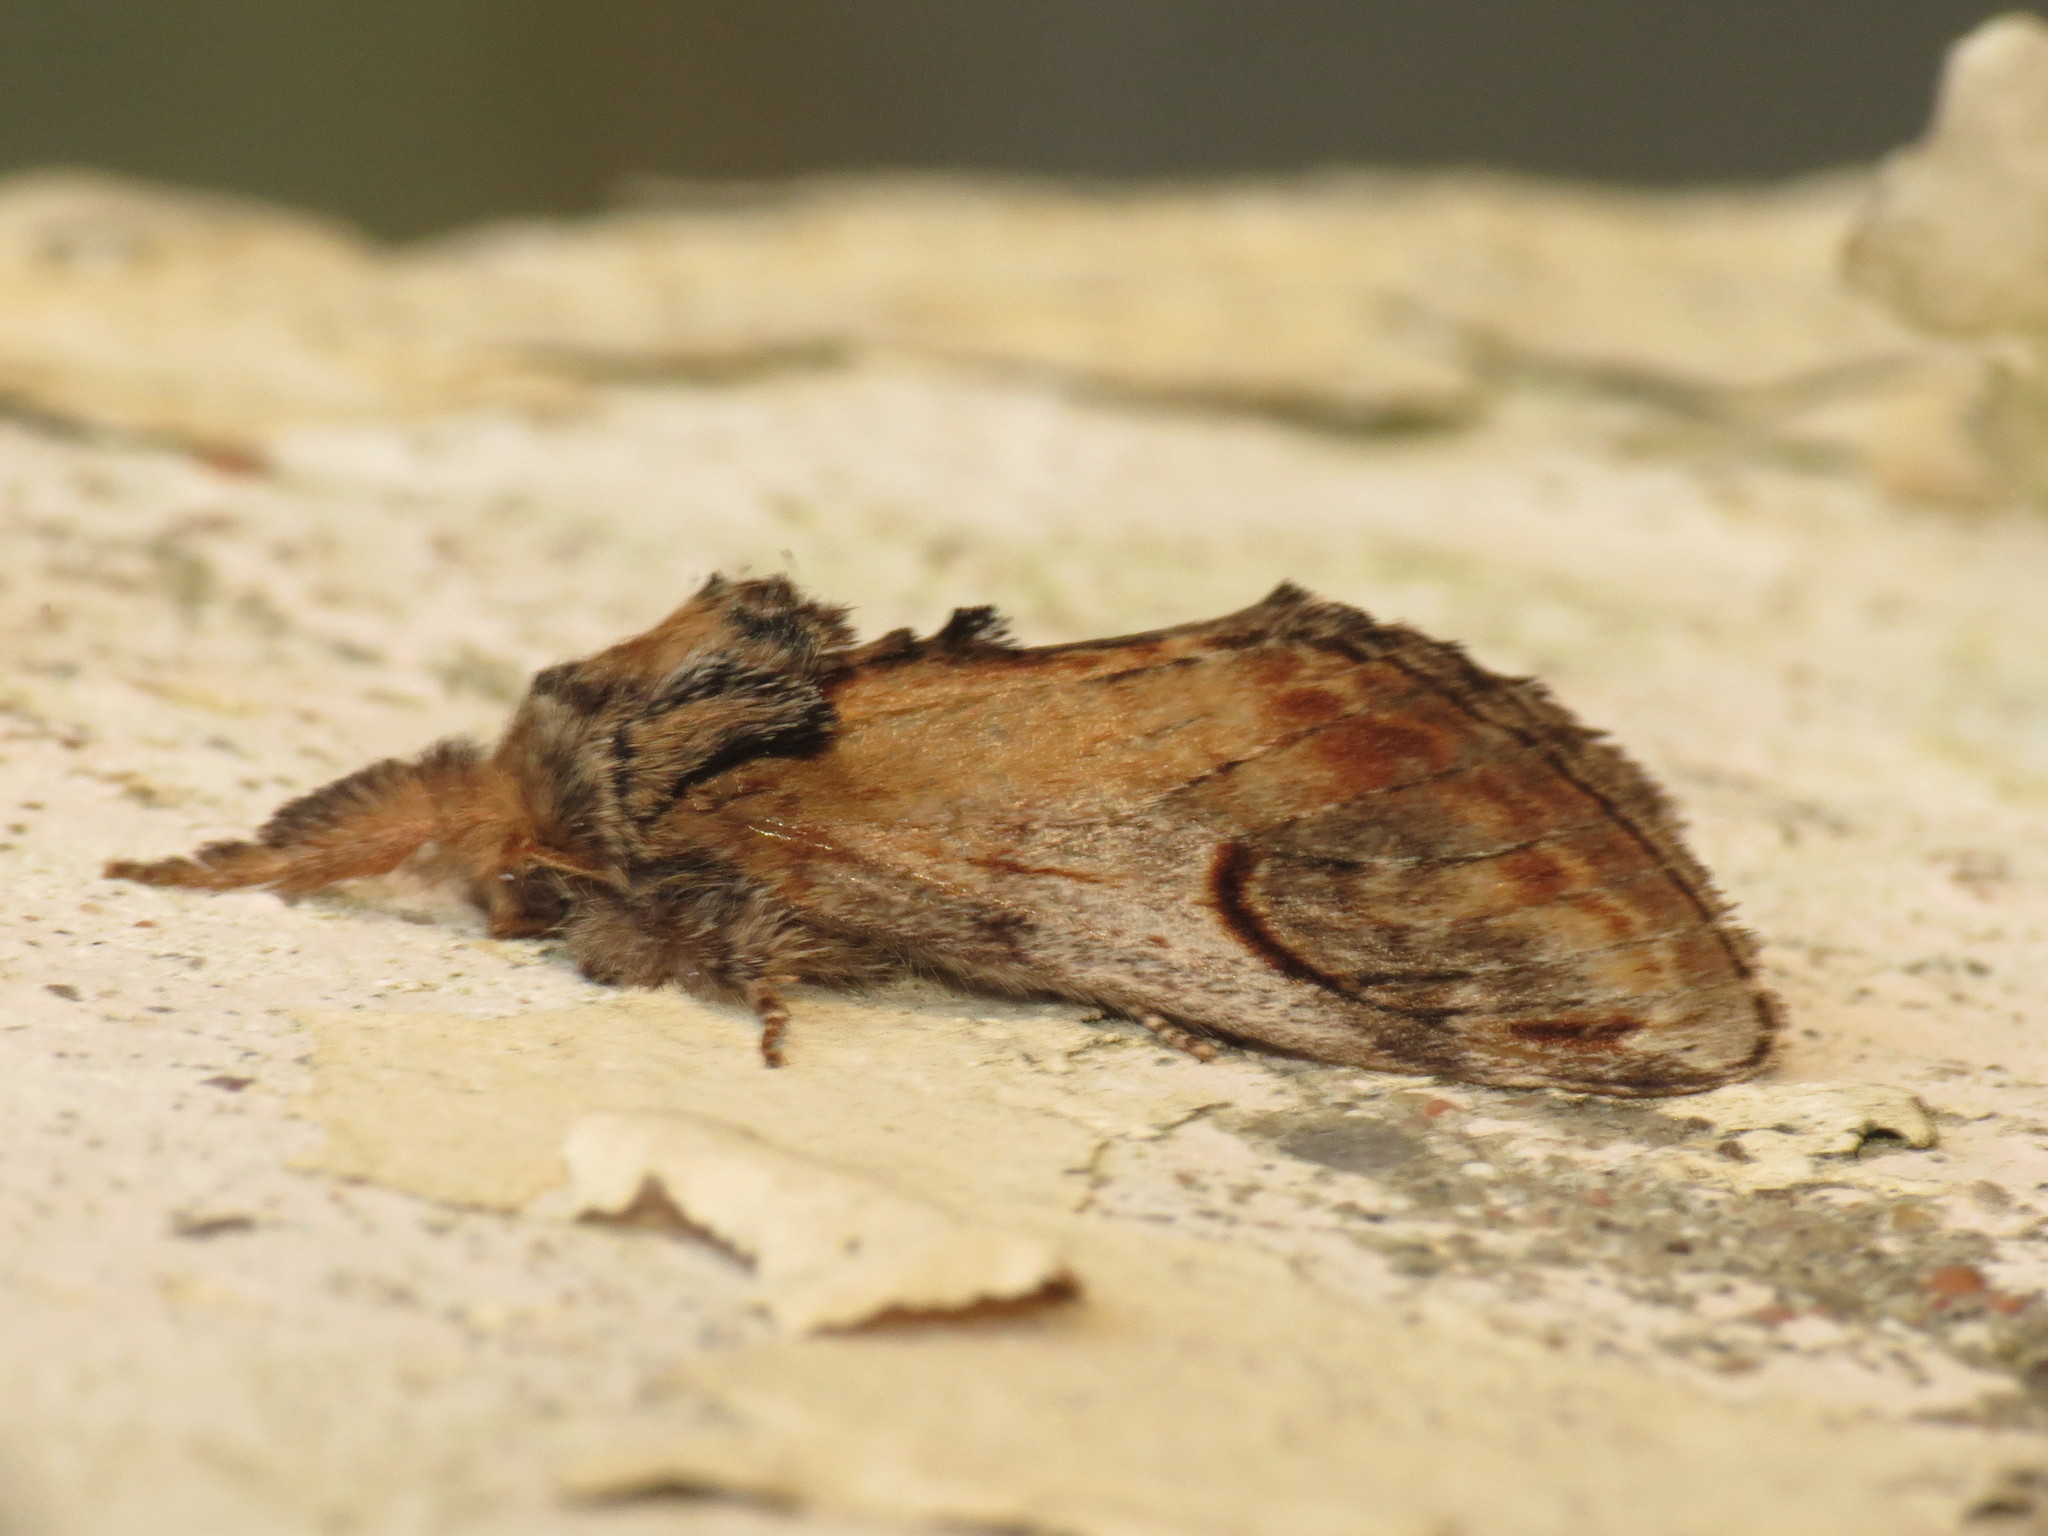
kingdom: Animalia
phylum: Arthropoda
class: Insecta
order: Lepidoptera
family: Notodontidae
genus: Notodonta
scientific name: Notodonta ziczac
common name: Pebble prominent
